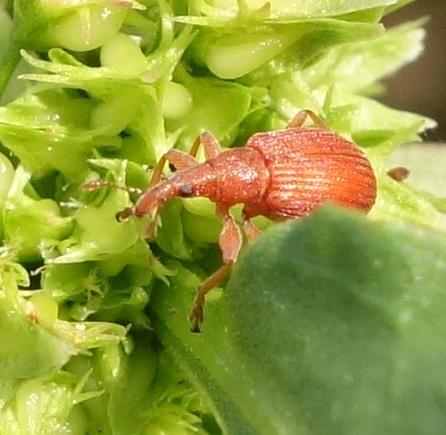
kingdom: Animalia
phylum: Arthropoda
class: Insecta
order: Coleoptera
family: Apionidae
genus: Apion
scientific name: Apion frumentarium
